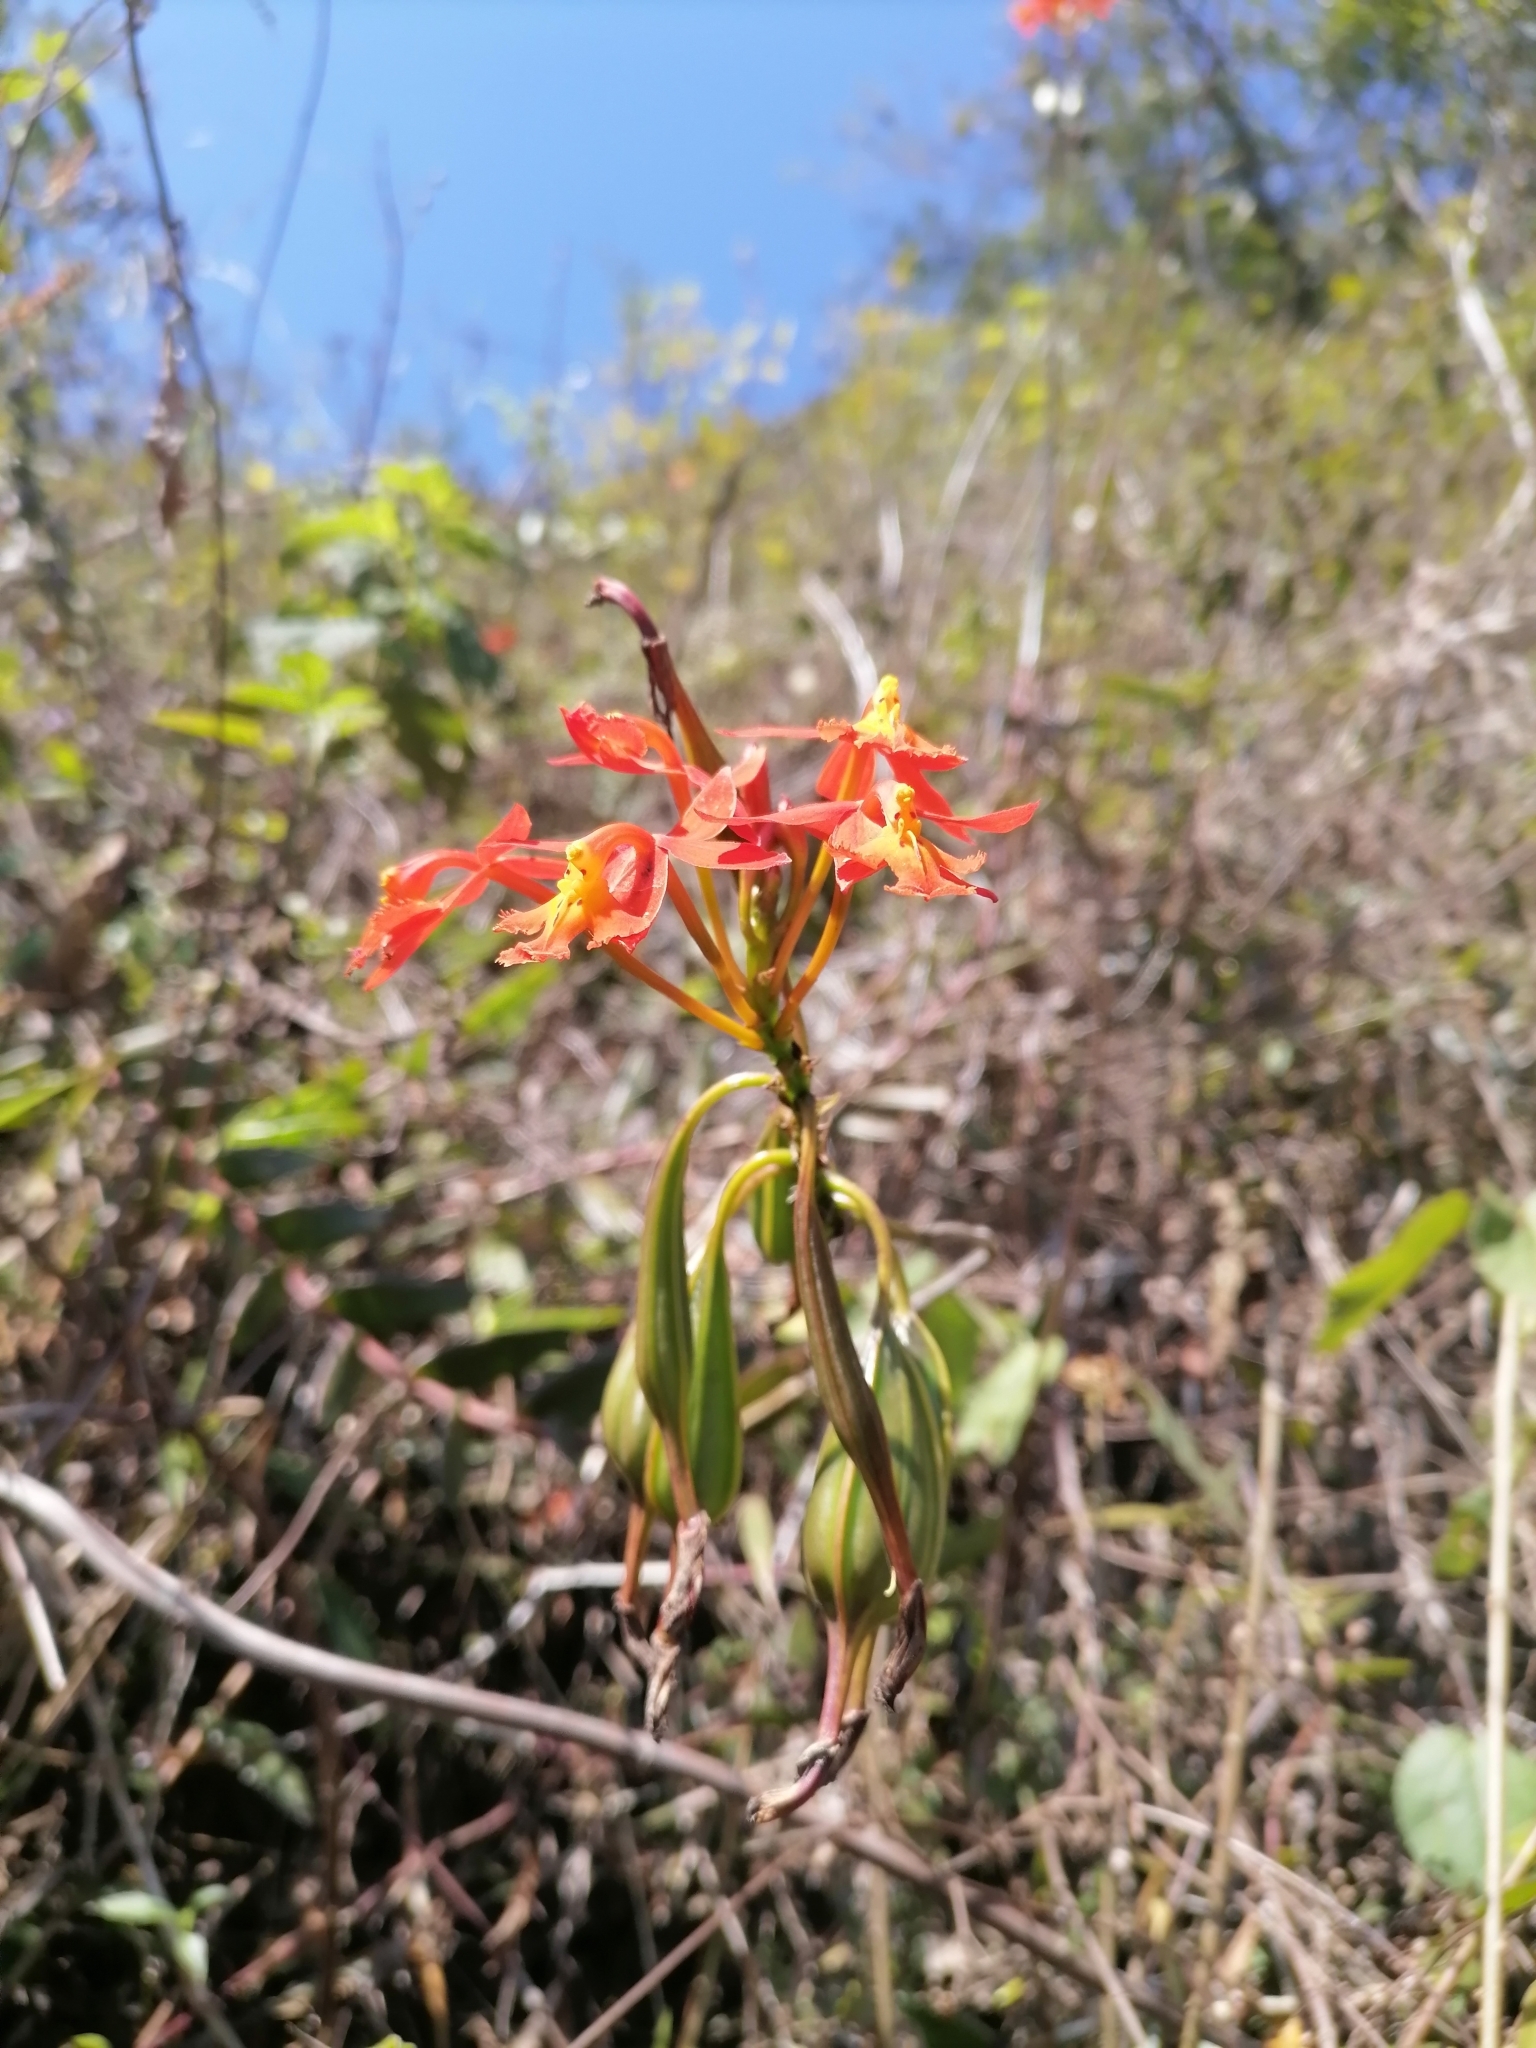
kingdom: Plantae
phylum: Tracheophyta
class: Liliopsida
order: Asparagales
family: Orchidaceae
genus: Epidendrum
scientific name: Epidendrum radicans
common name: Fire star orchid
